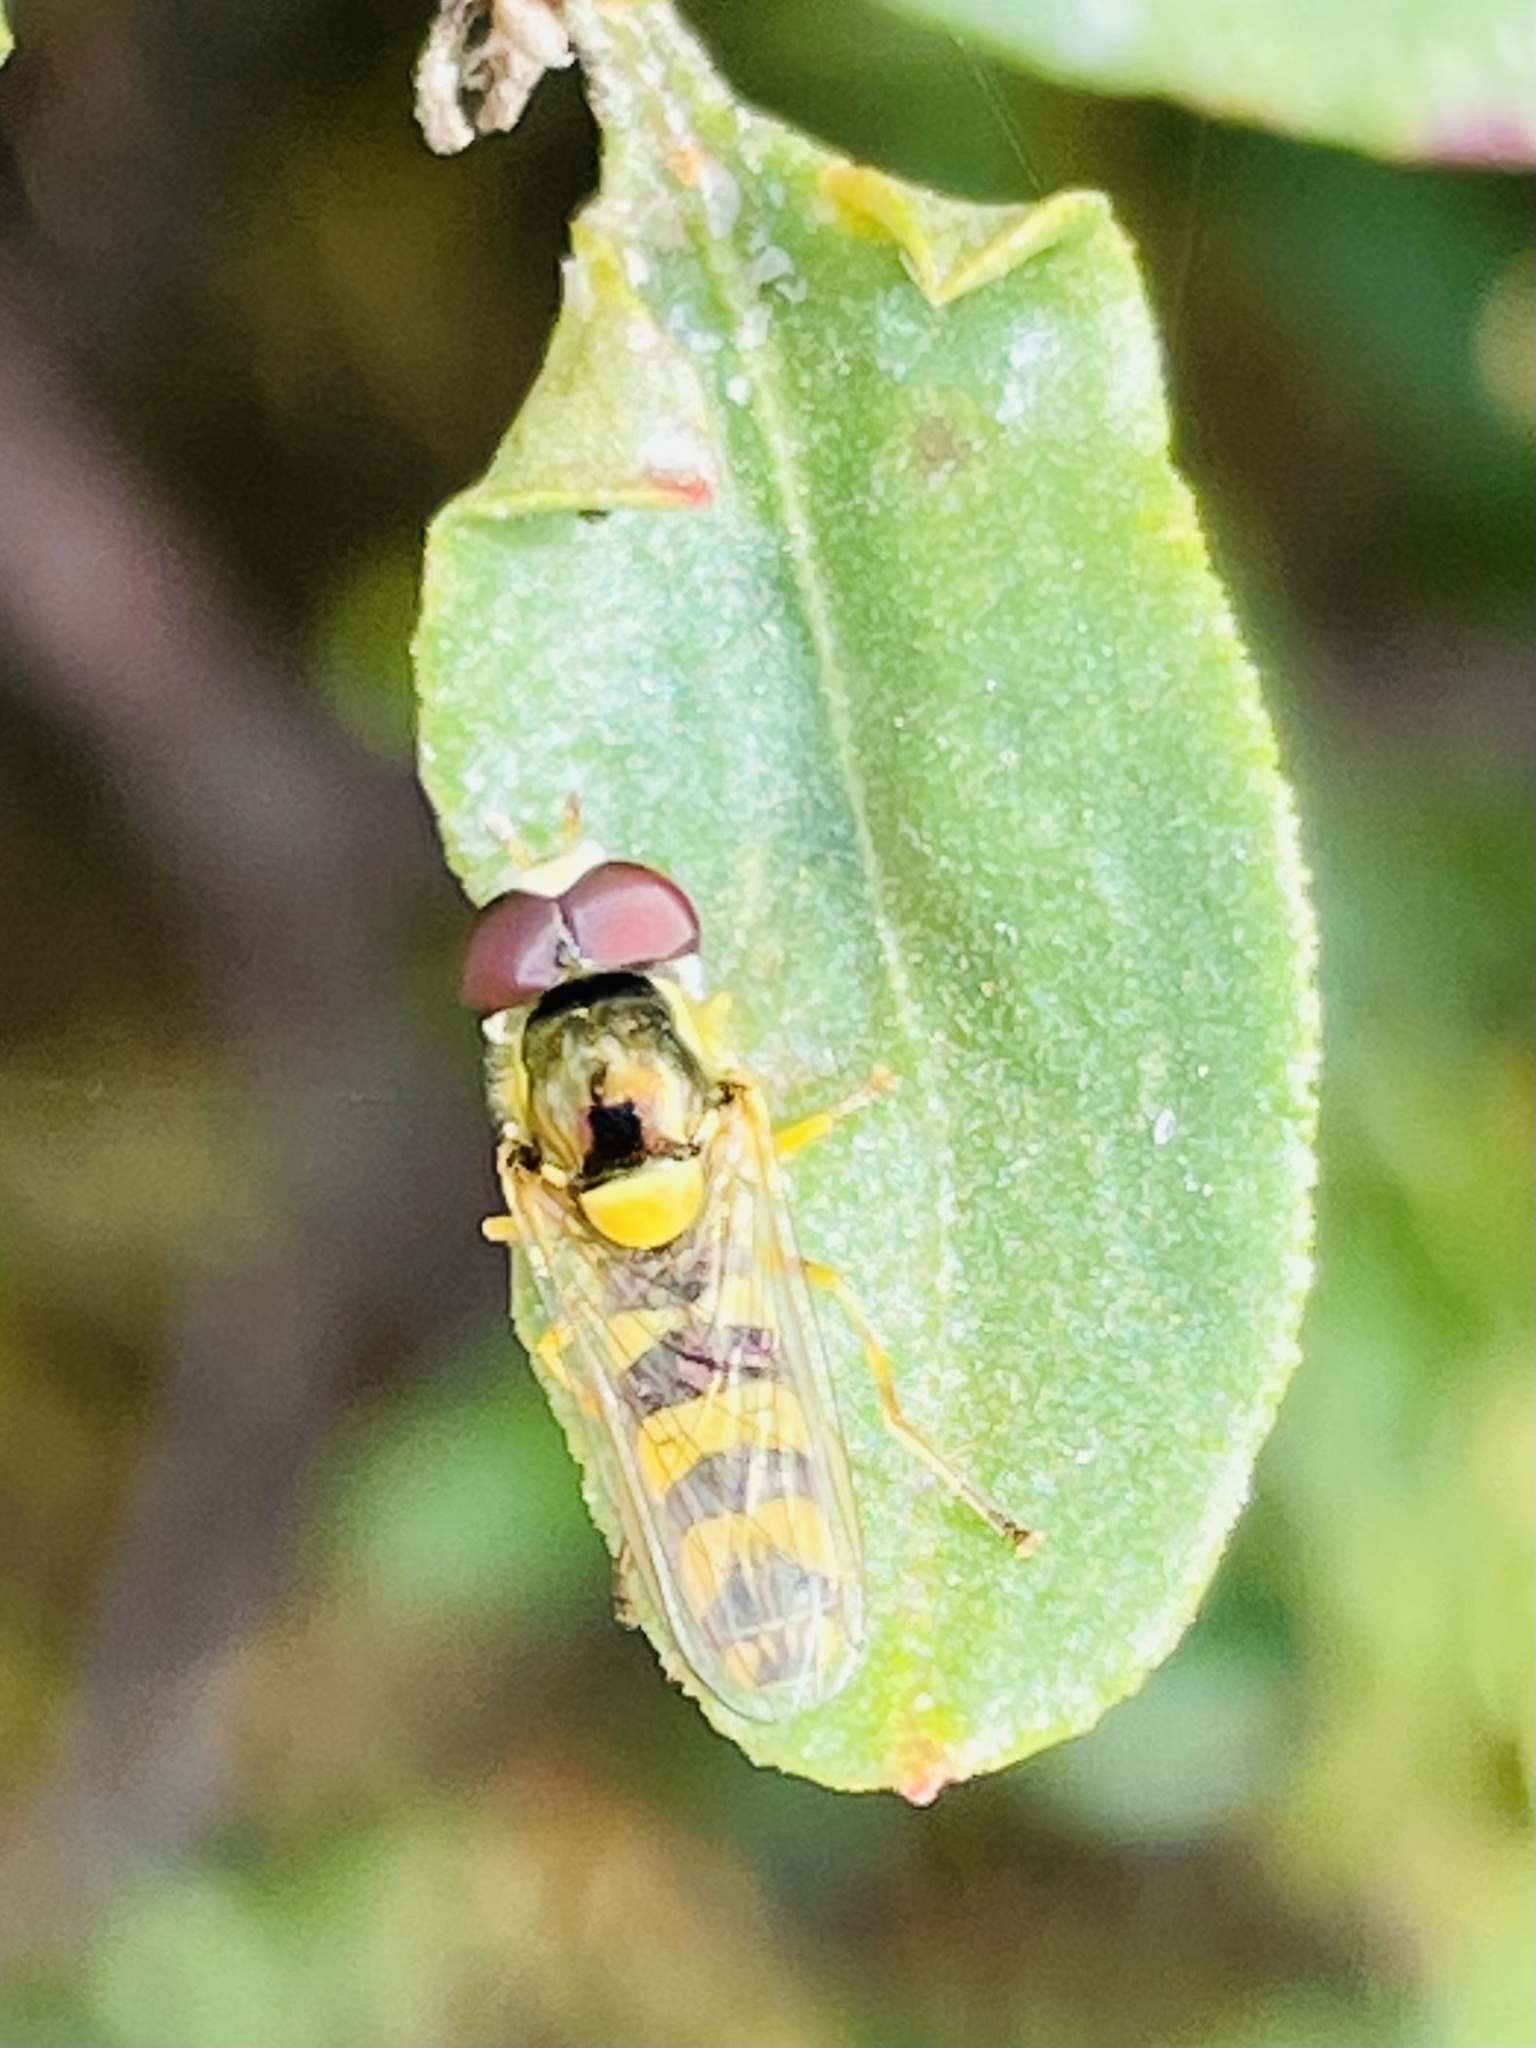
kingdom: Animalia
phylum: Arthropoda
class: Insecta
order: Diptera
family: Syrphidae
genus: Allograpta
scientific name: Allograpta exotica
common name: Syrphid fly
